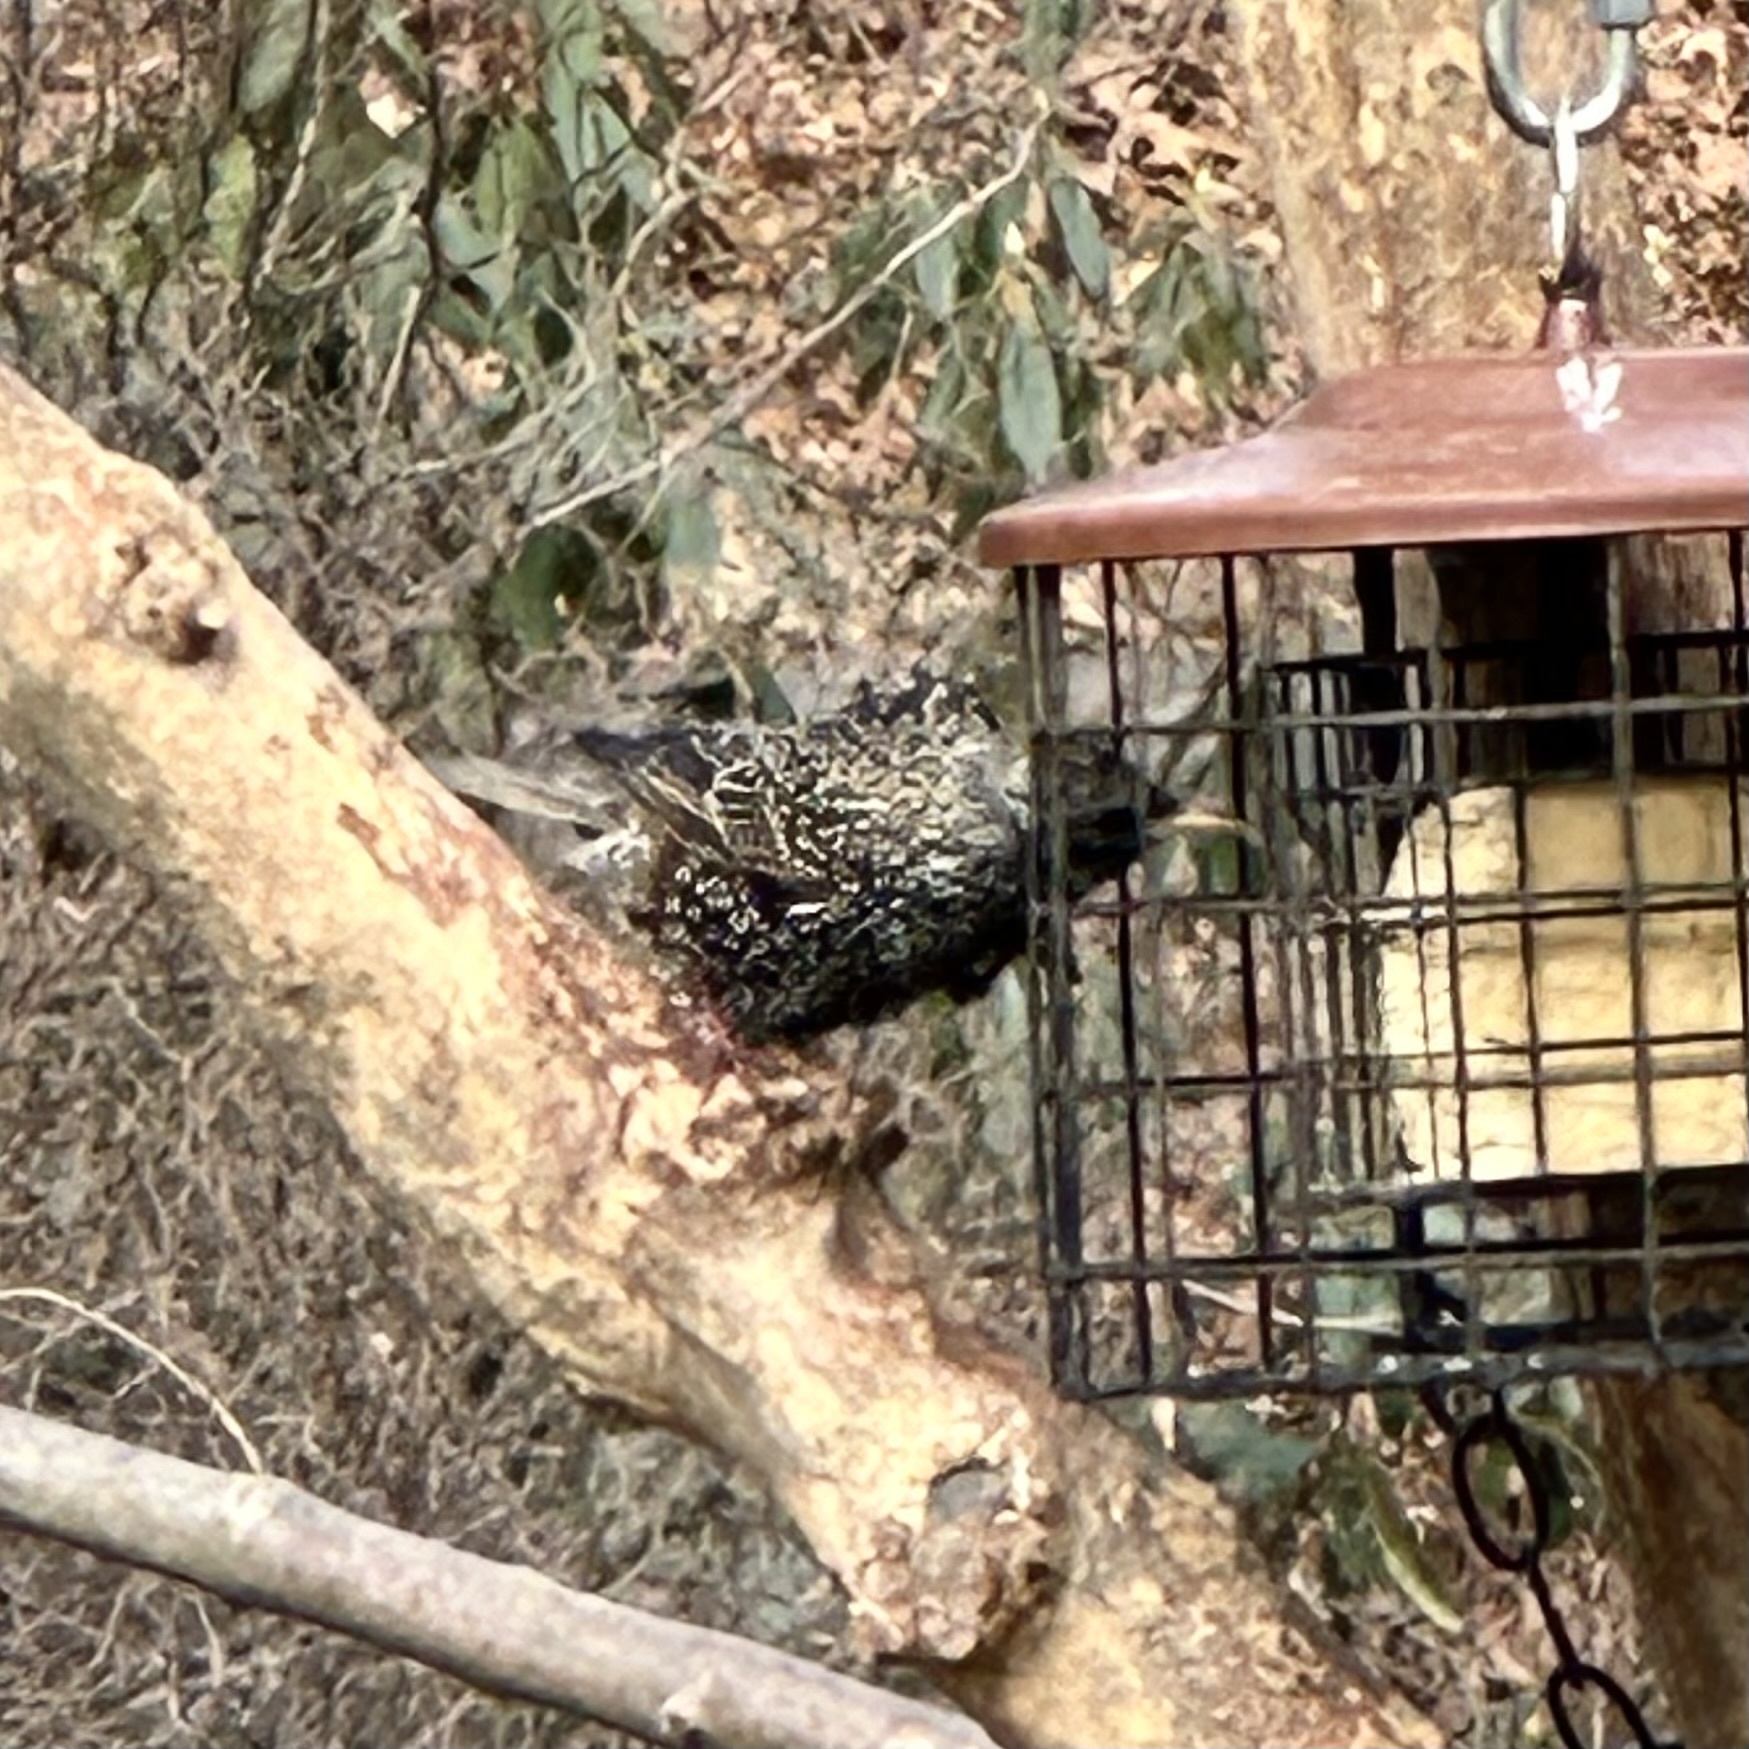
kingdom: Animalia
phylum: Chordata
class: Aves
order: Passeriformes
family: Sturnidae
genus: Sturnus
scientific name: Sturnus vulgaris
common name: Common starling
